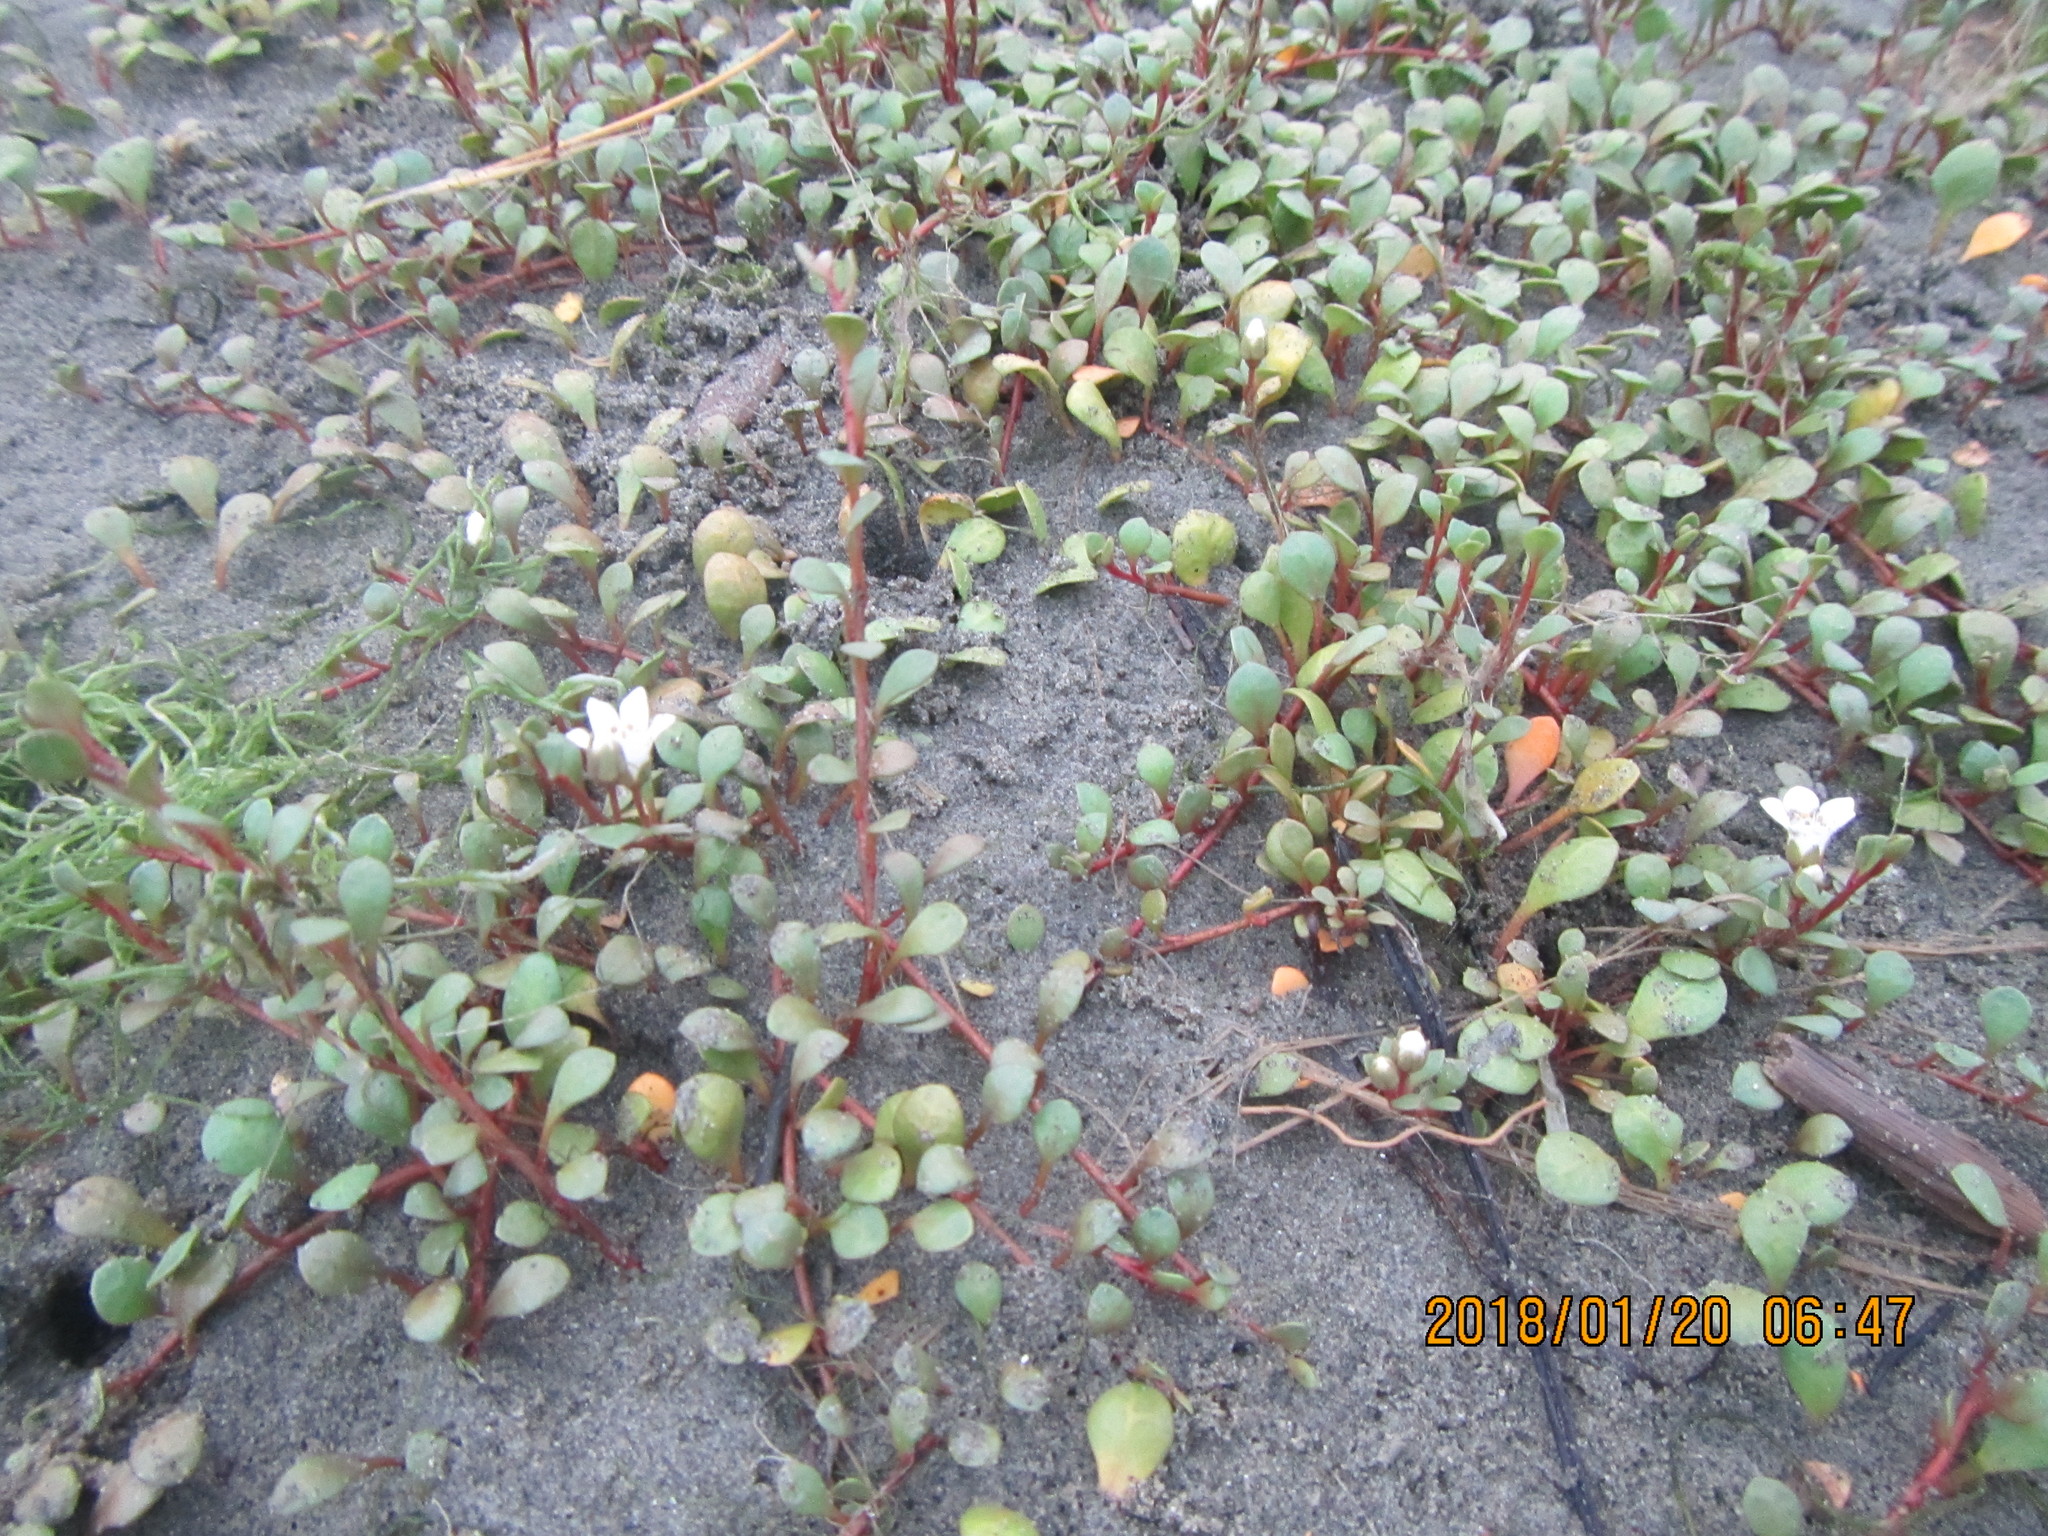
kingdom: Plantae
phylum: Tracheophyta
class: Magnoliopsida
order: Ericales
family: Primulaceae
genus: Samolus
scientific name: Samolus repens
